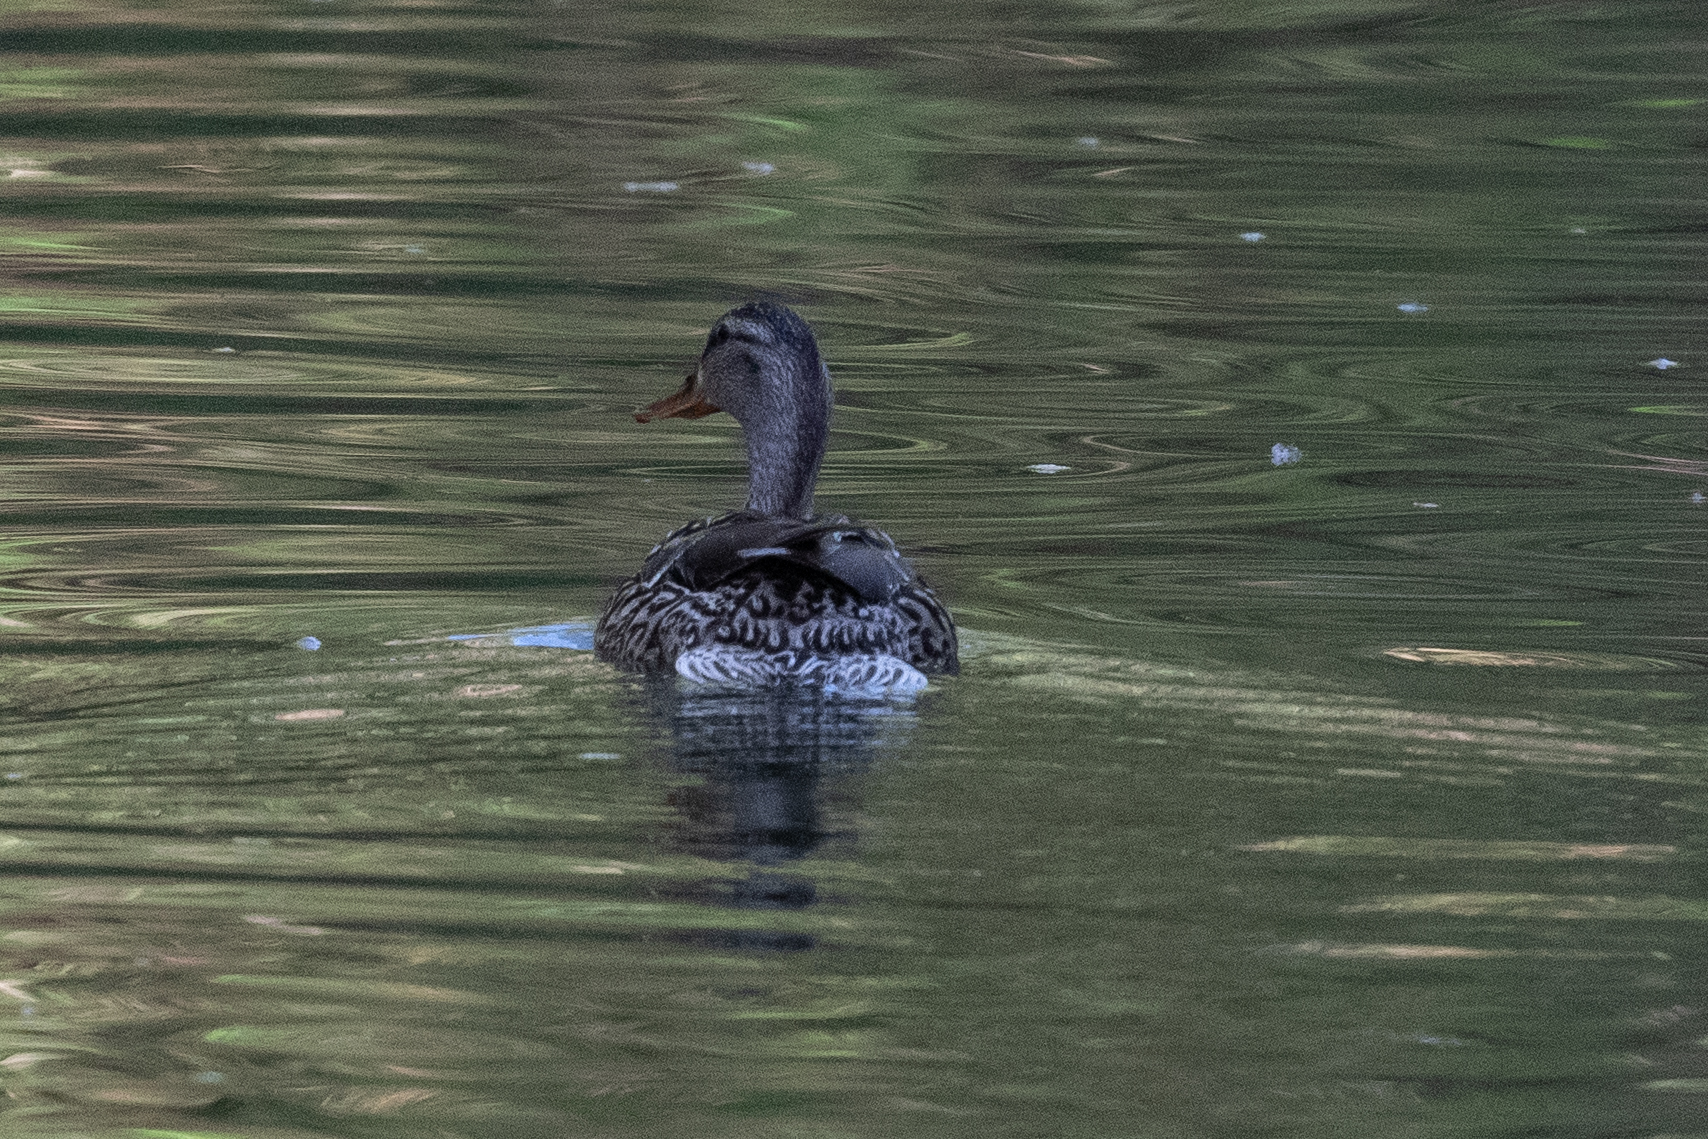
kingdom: Animalia
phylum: Chordata
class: Aves
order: Anseriformes
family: Anatidae
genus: Anas
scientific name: Anas platyrhynchos
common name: Mallard
